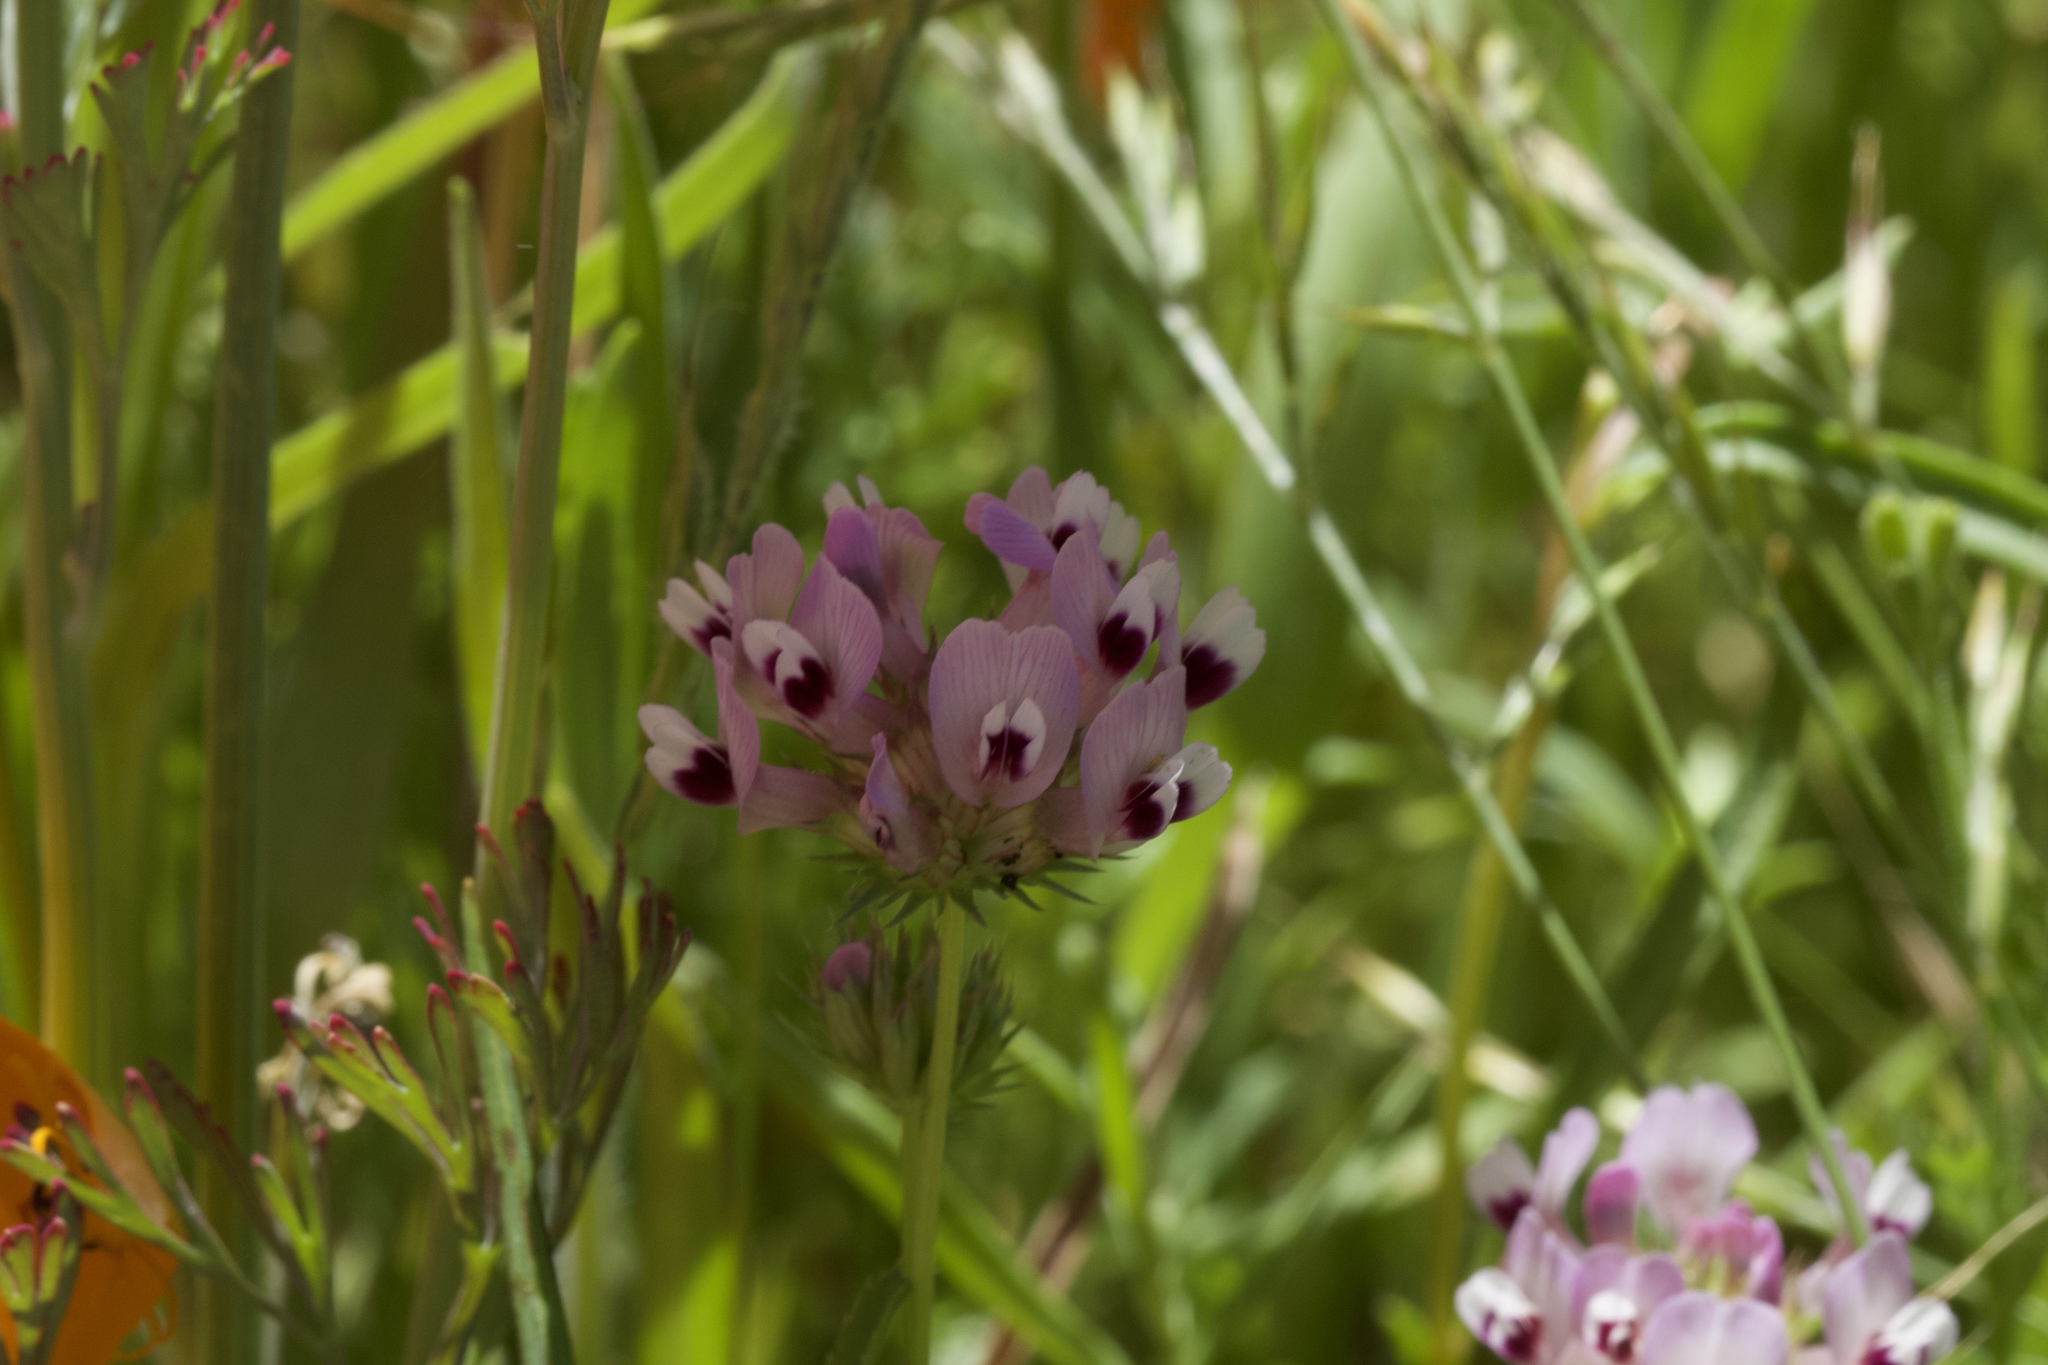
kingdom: Plantae
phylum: Tracheophyta
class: Magnoliopsida
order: Fabales
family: Fabaceae
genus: Trifolium
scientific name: Trifolium willdenovii
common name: Tomcat clover
